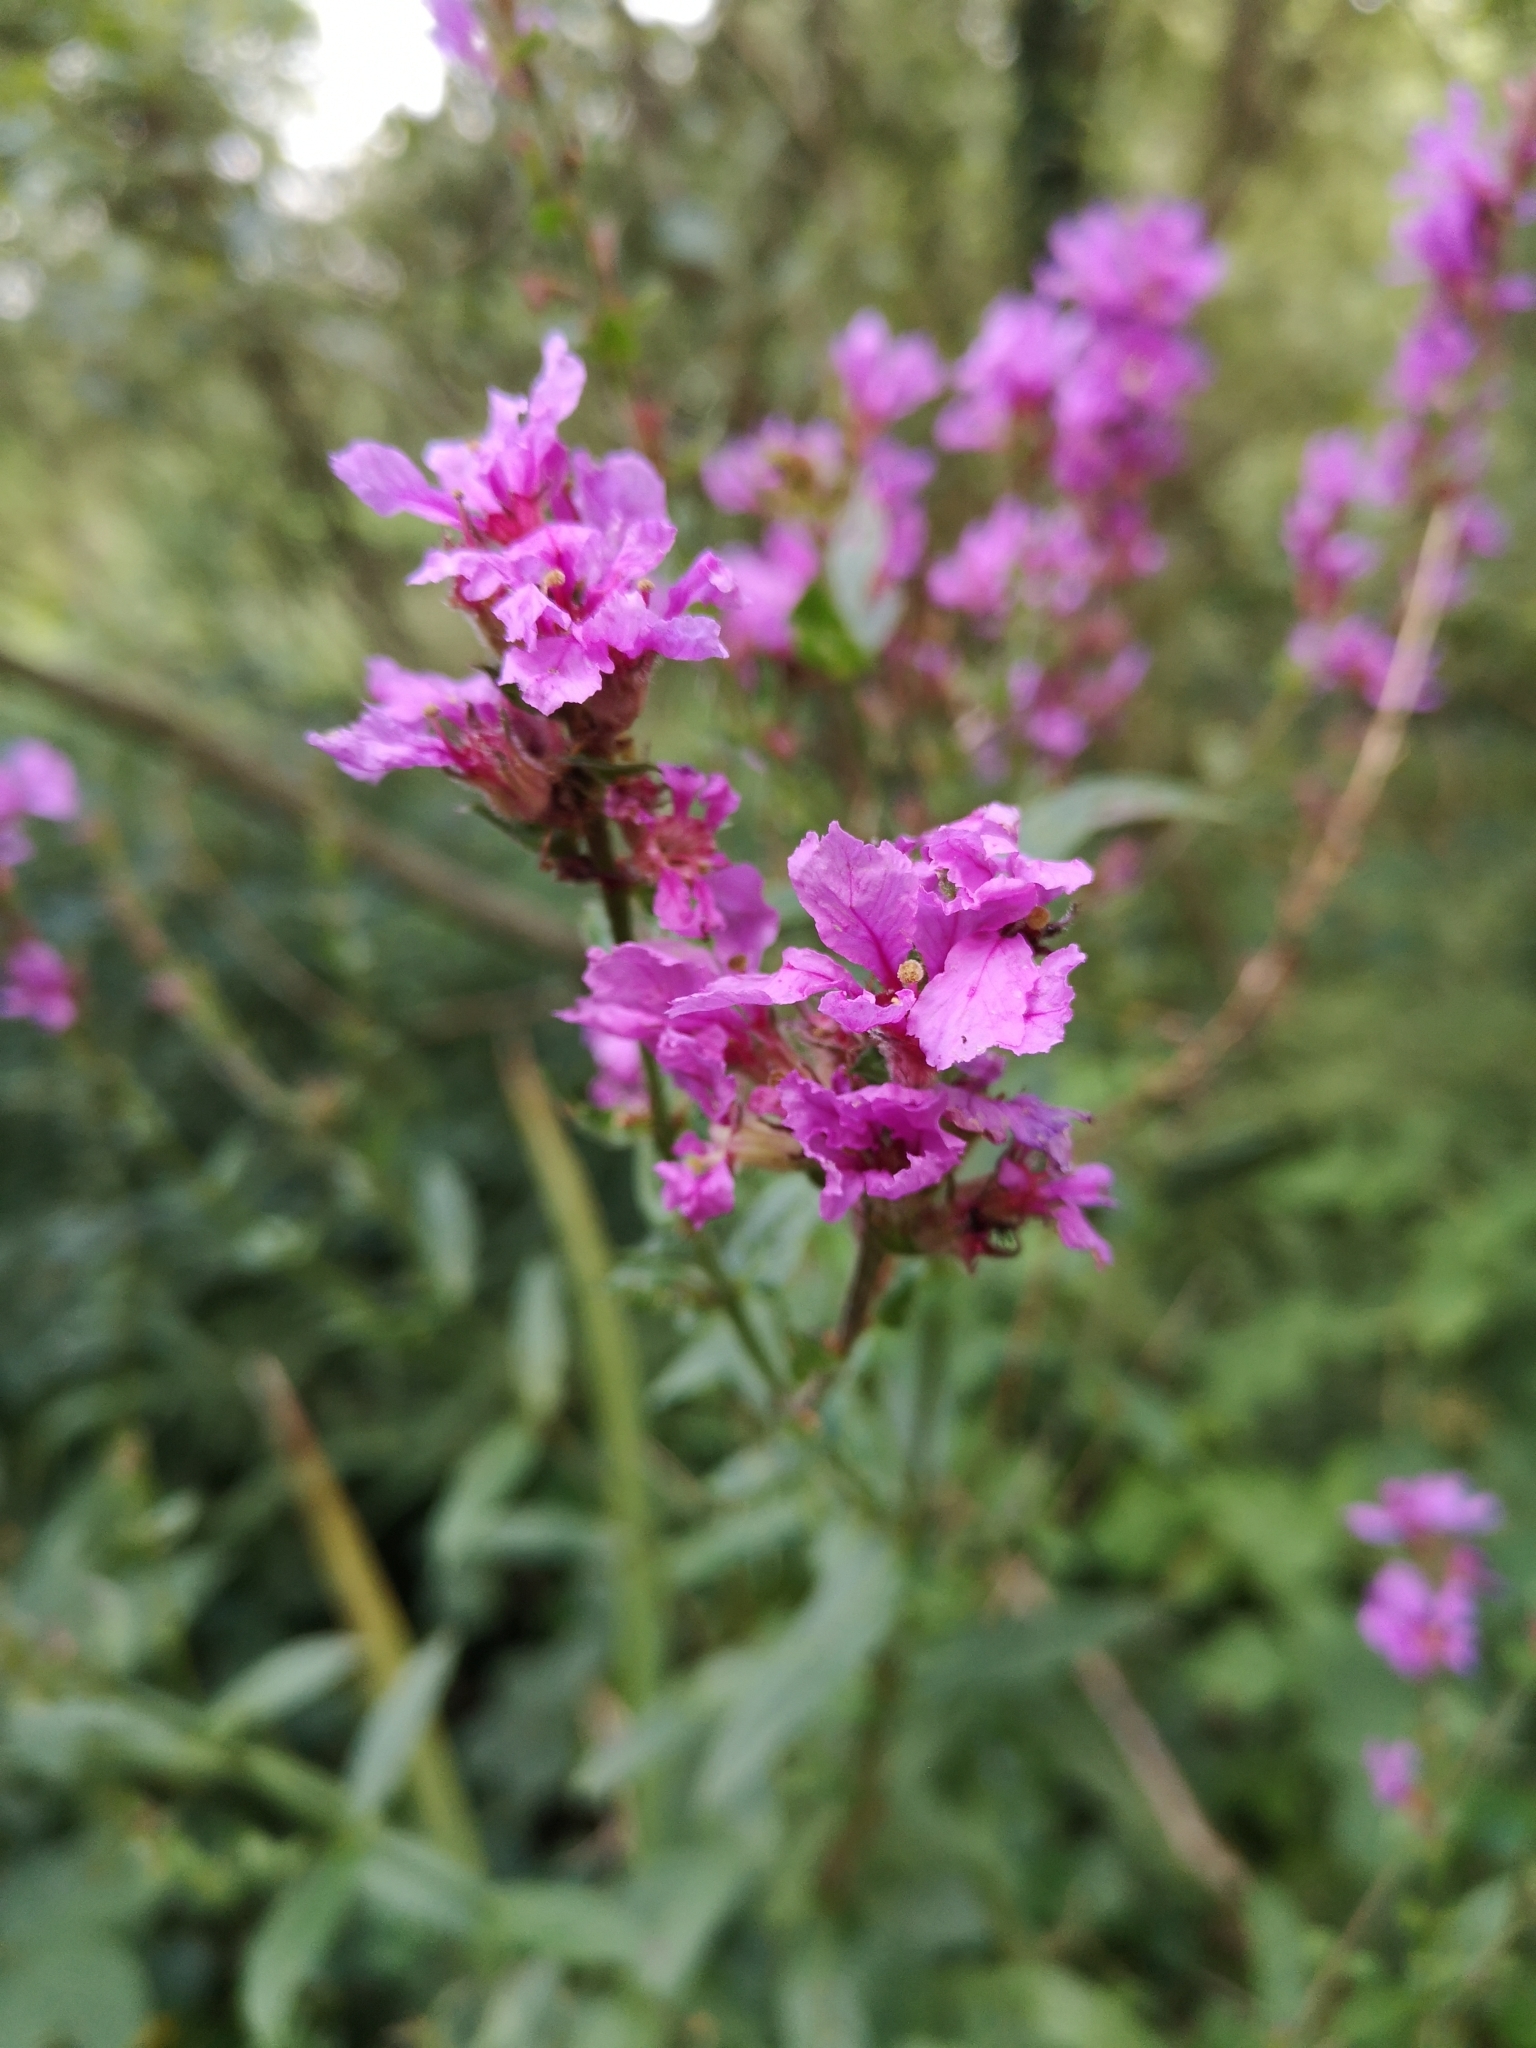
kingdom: Plantae
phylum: Tracheophyta
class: Magnoliopsida
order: Myrtales
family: Lythraceae
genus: Lythrum
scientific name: Lythrum salicaria
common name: Purple loosestrife
